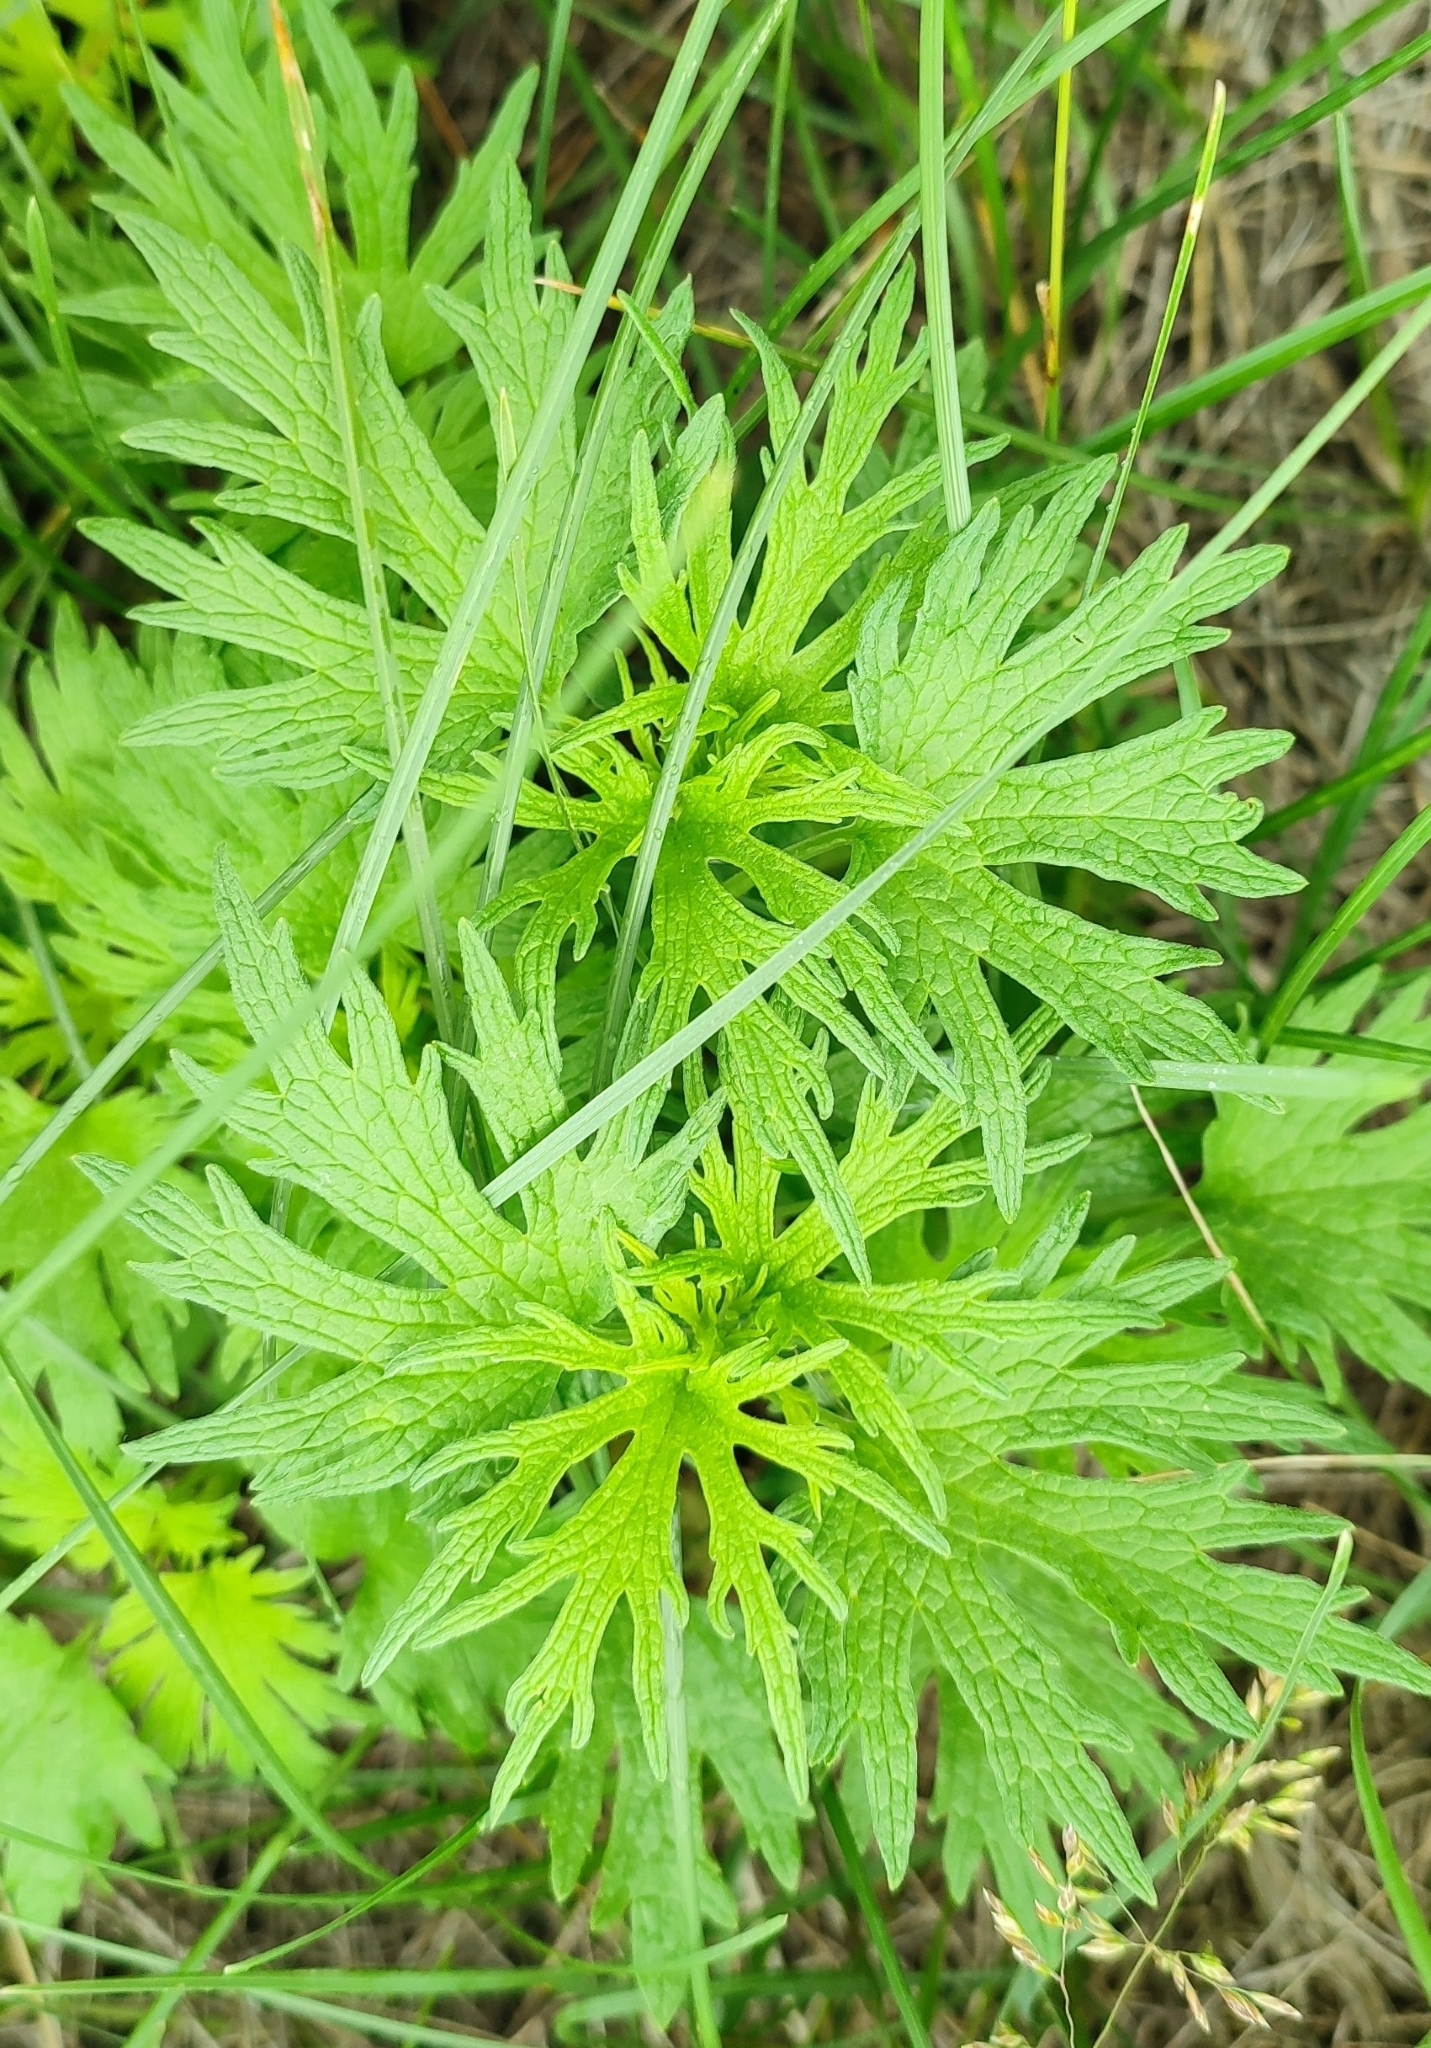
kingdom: Plantae
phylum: Tracheophyta
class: Magnoliopsida
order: Lamiales
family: Lamiaceae
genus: Leonurus
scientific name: Leonurus glaucescens
